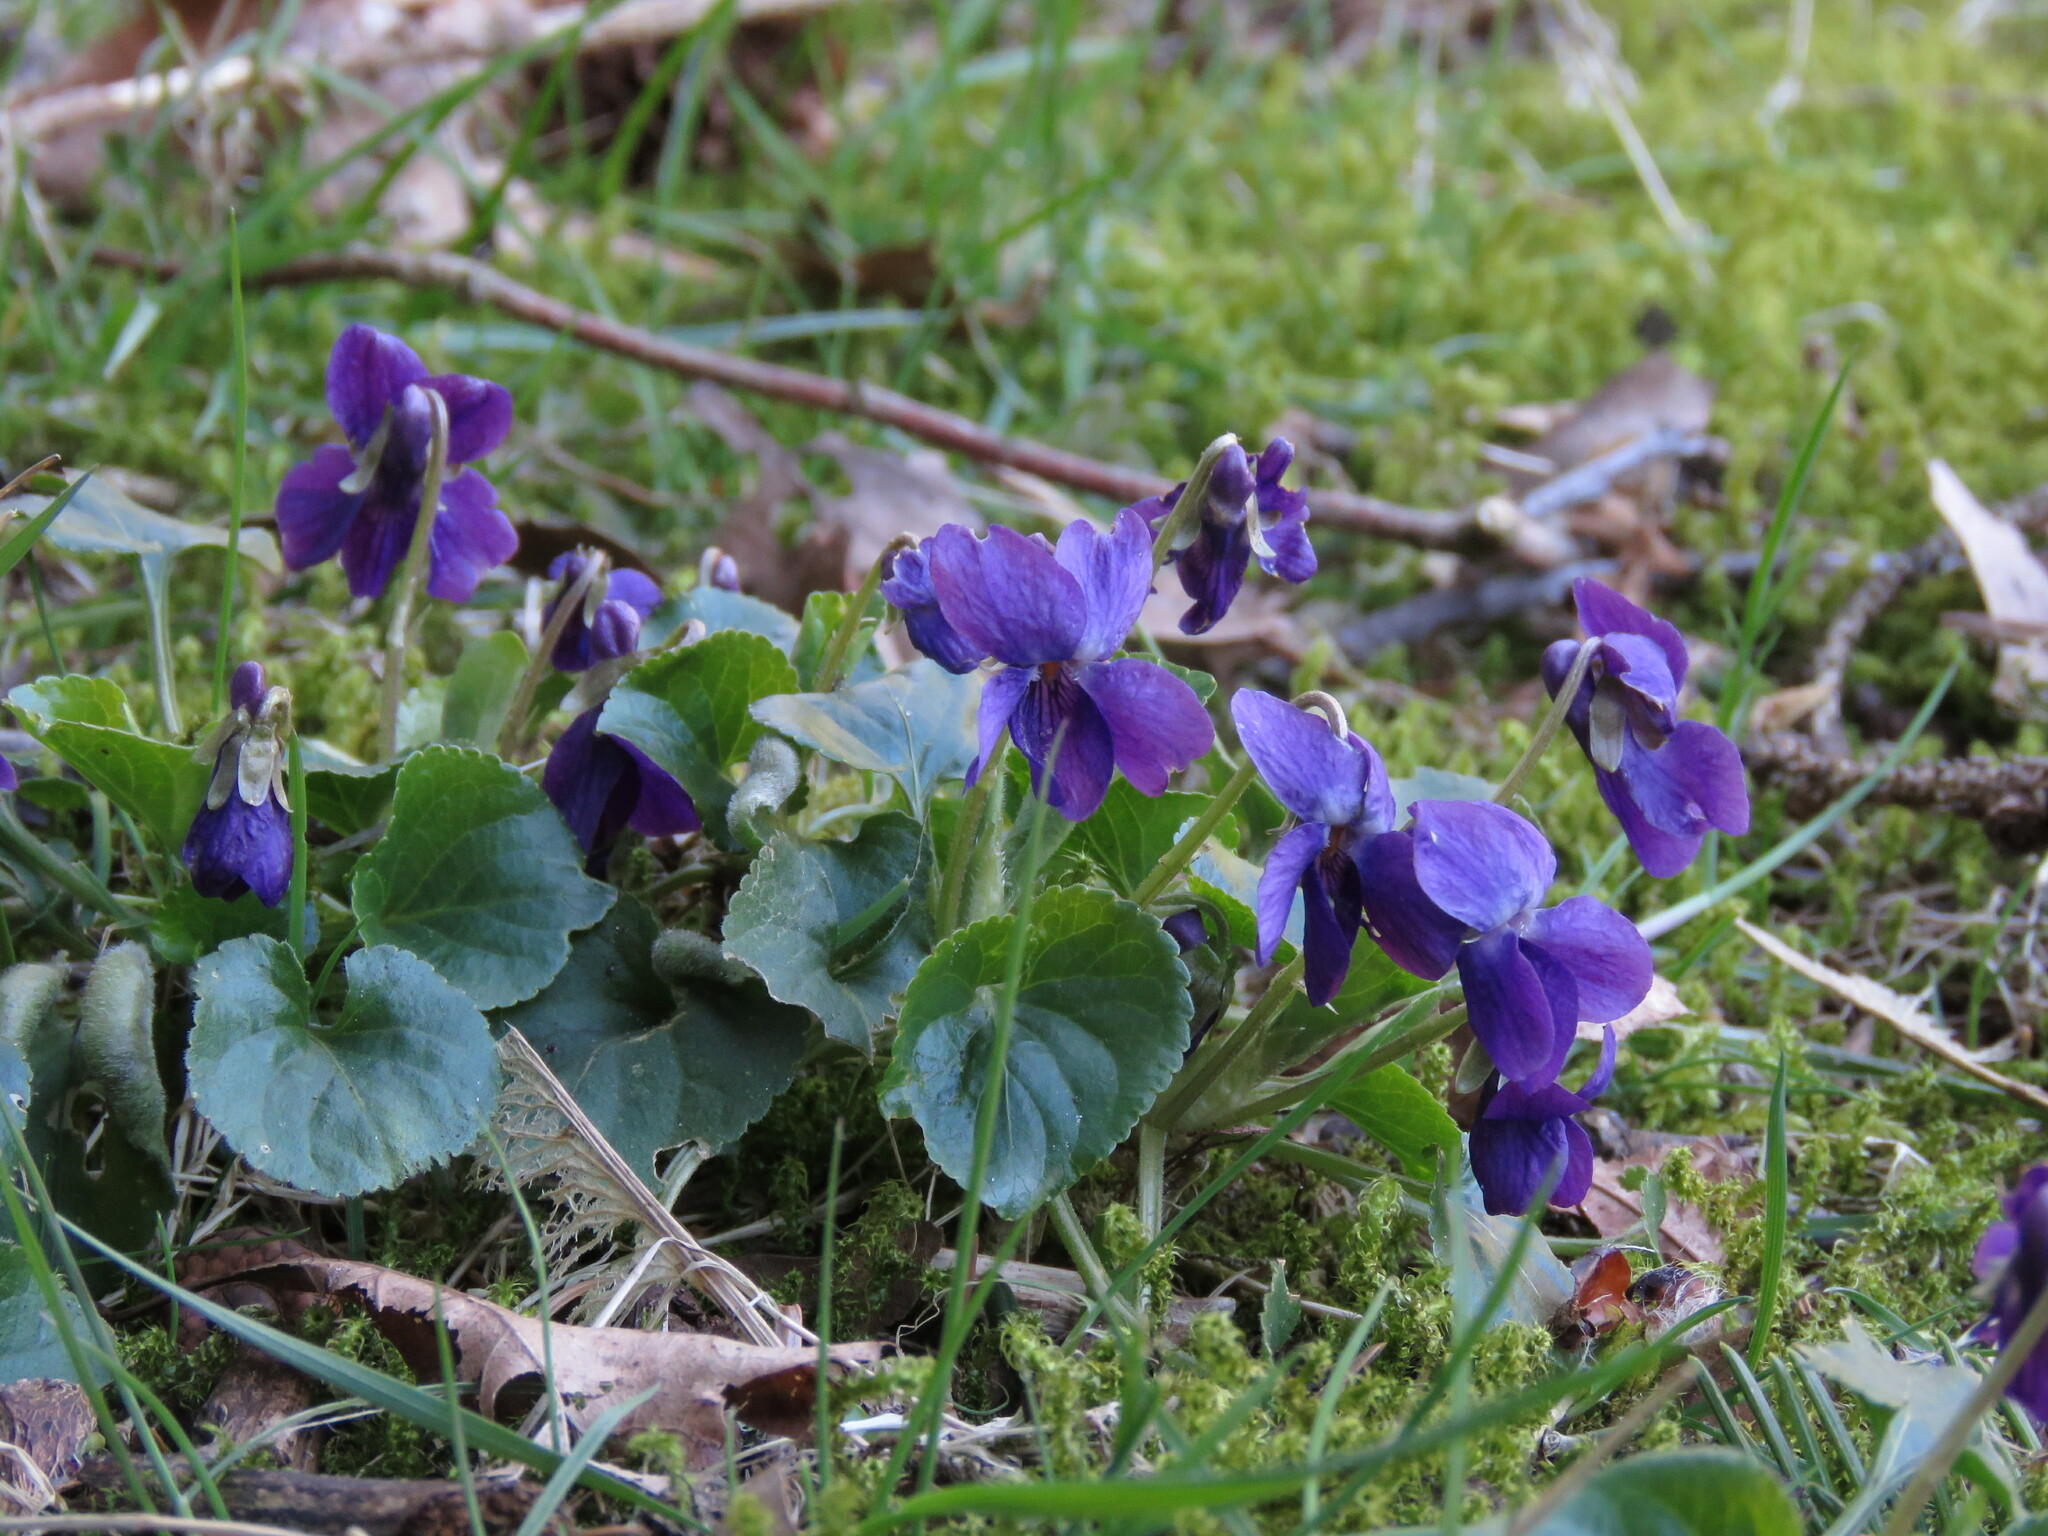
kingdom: Plantae
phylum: Tracheophyta
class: Magnoliopsida
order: Malpighiales
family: Violaceae
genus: Viola
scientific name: Viola odorata
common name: Sweet violet
